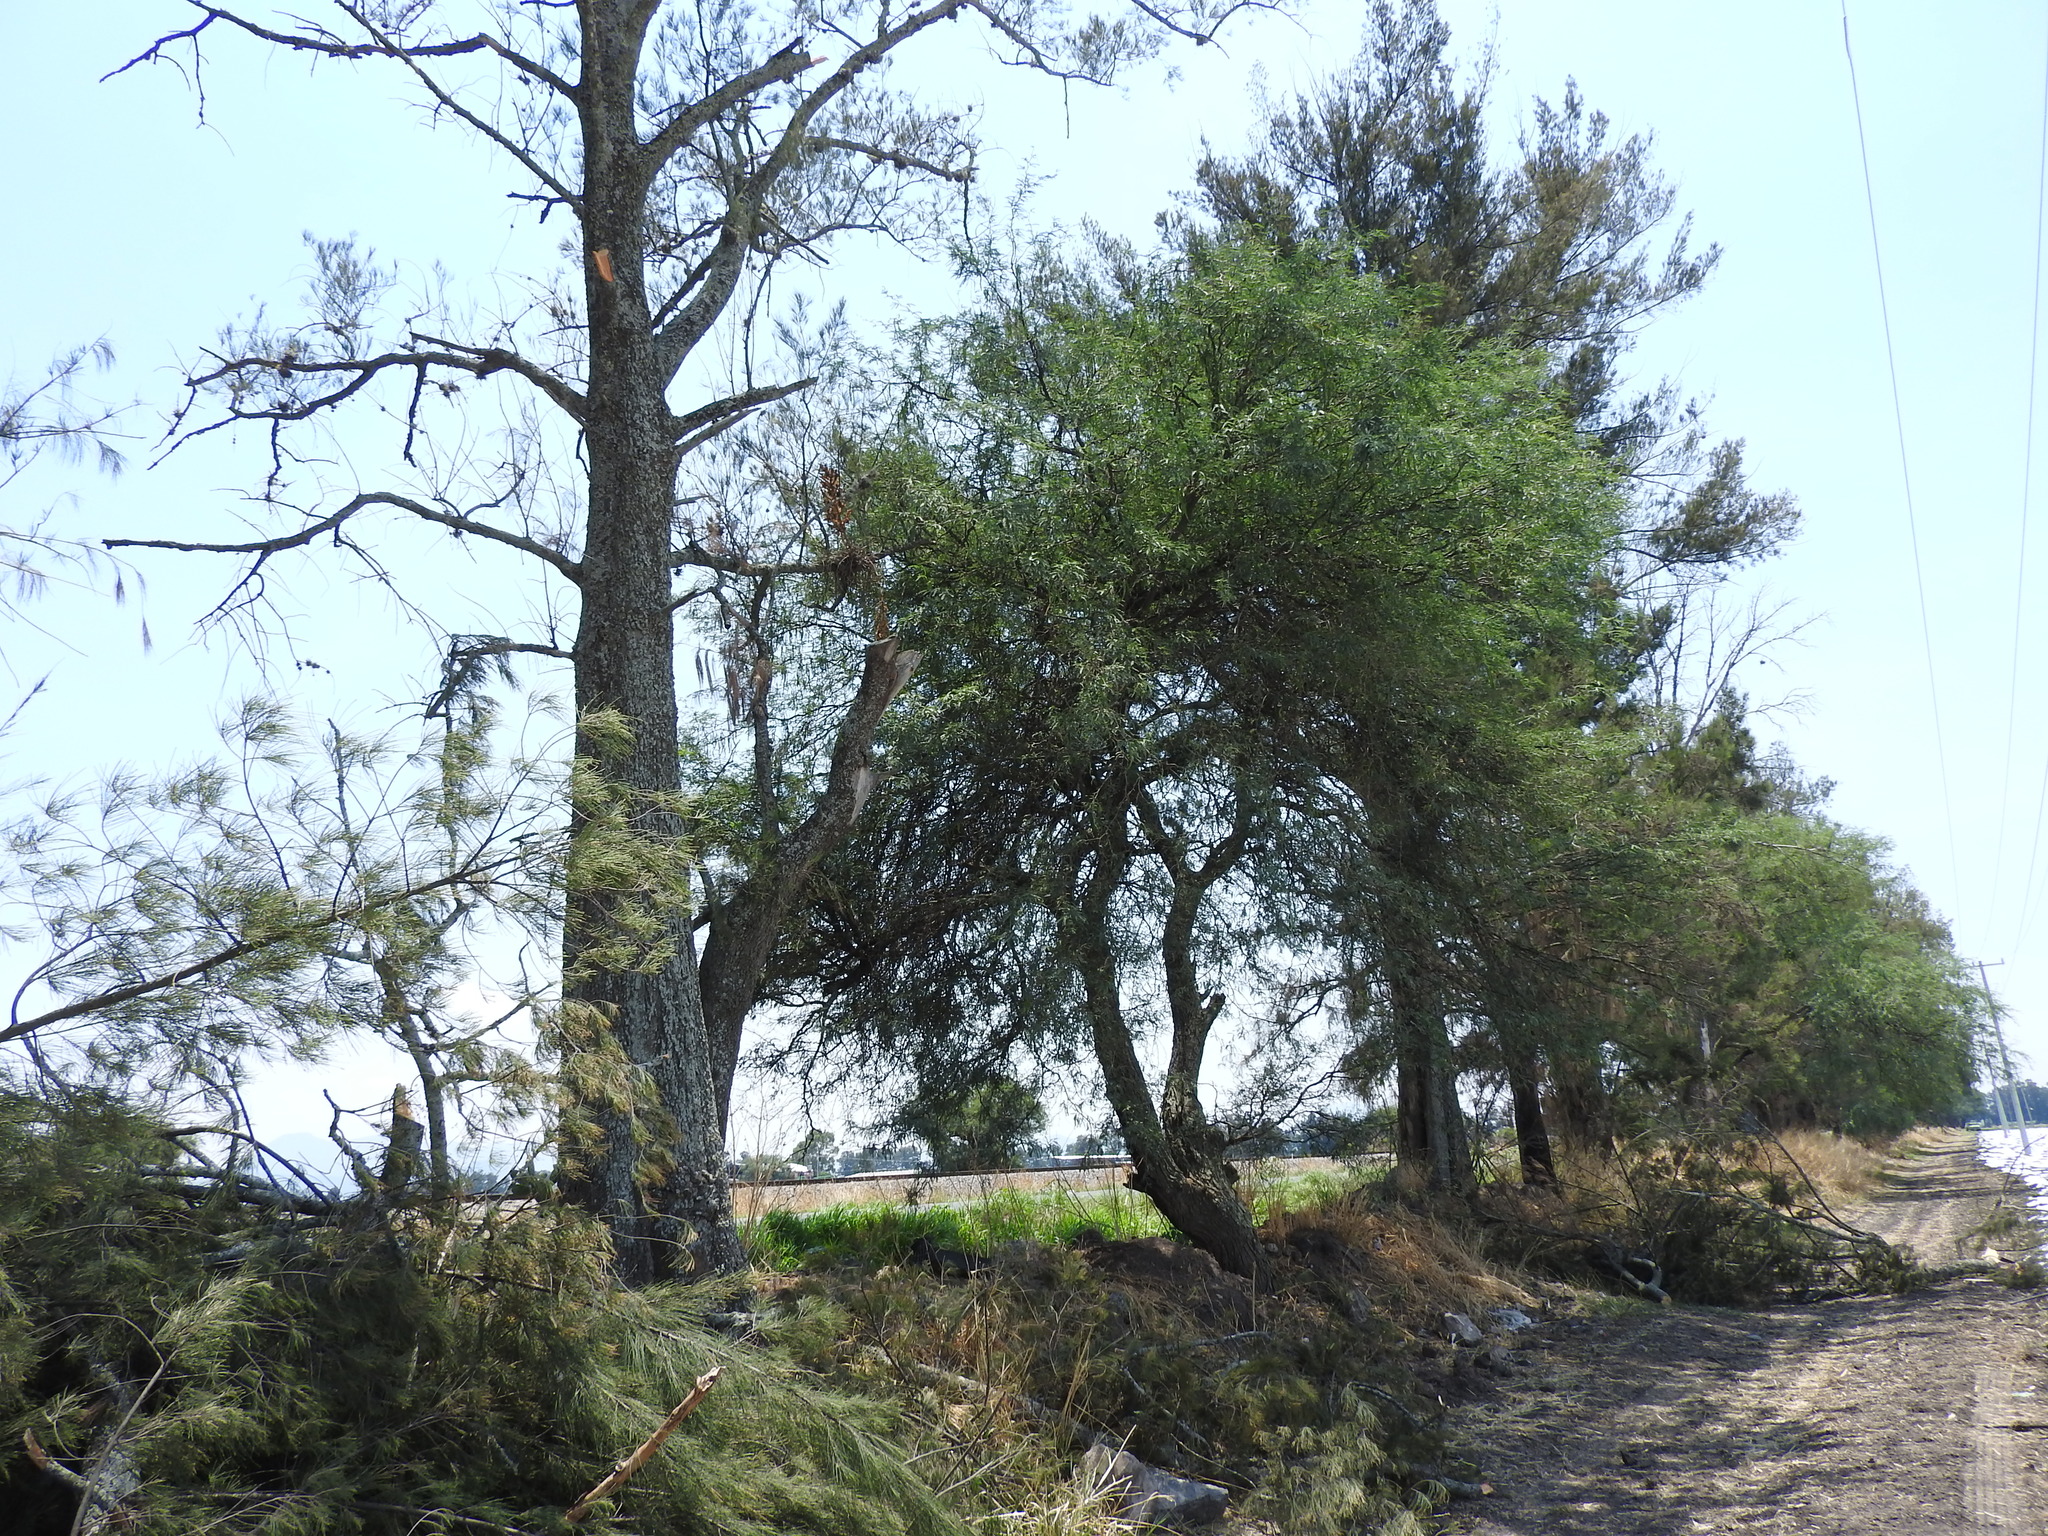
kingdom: Plantae
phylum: Tracheophyta
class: Magnoliopsida
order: Malpighiales
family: Salicaceae
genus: Salix
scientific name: Salix humboldtiana
